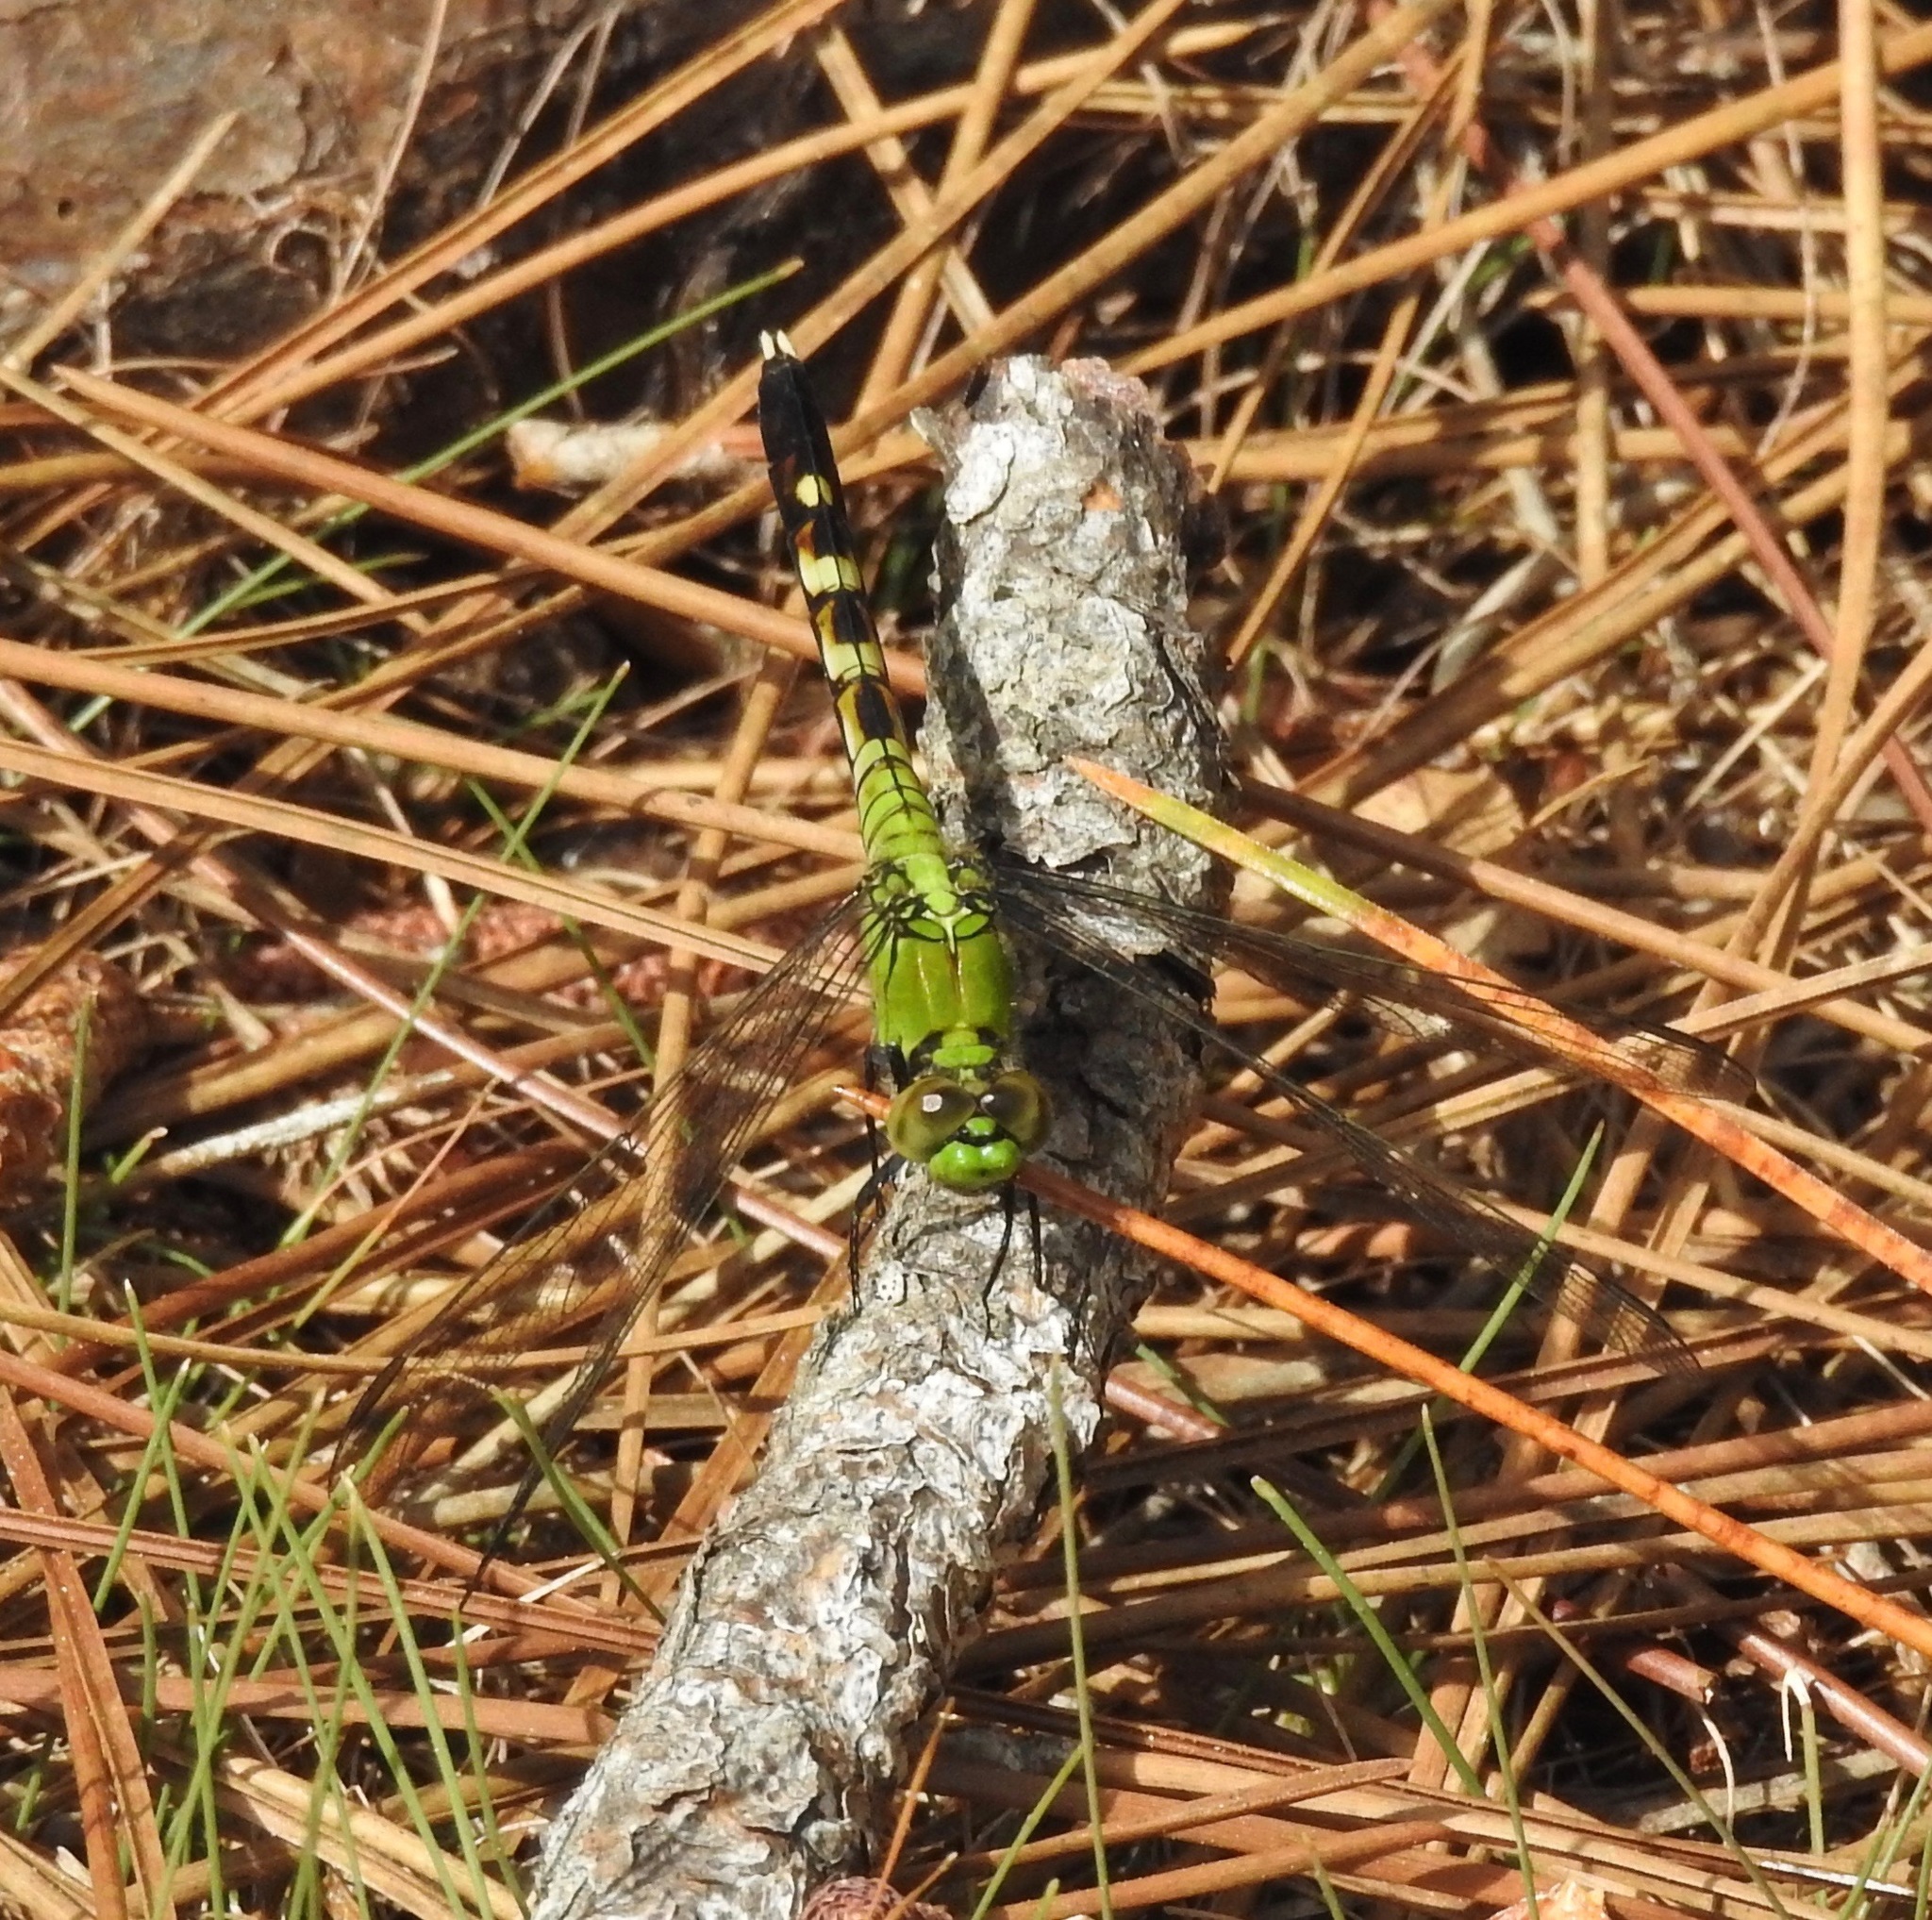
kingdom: Animalia
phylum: Arthropoda
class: Insecta
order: Odonata
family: Libellulidae
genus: Erythemis
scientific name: Erythemis simplicicollis
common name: Eastern pondhawk
